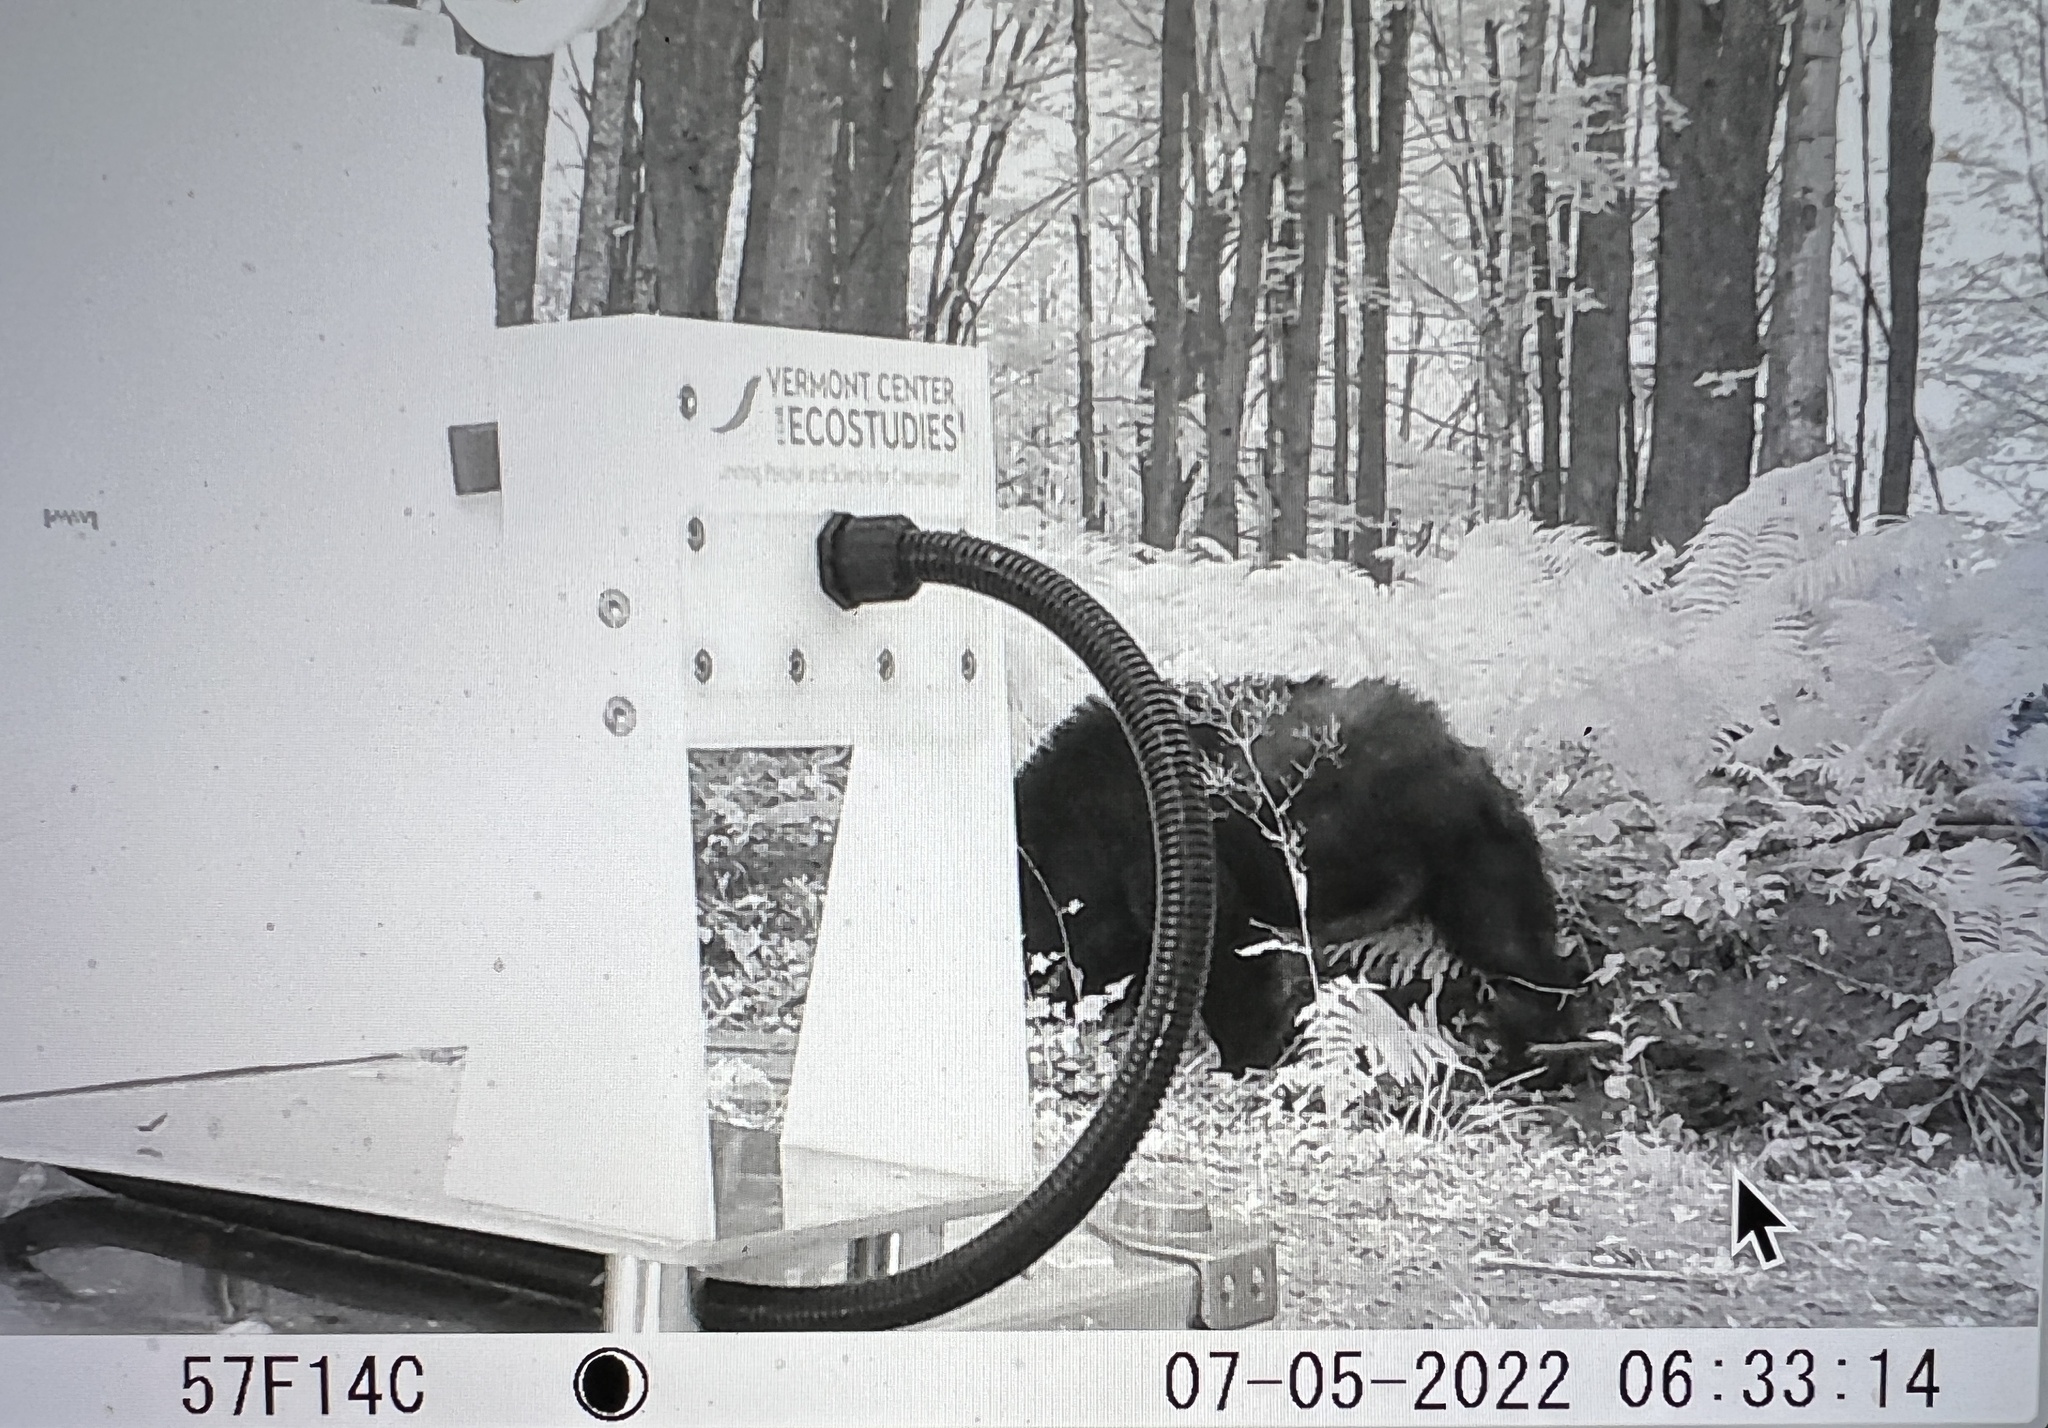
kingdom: Animalia
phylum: Chordata
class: Mammalia
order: Carnivora
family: Ursidae
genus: Ursus
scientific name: Ursus americanus
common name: American black bear
